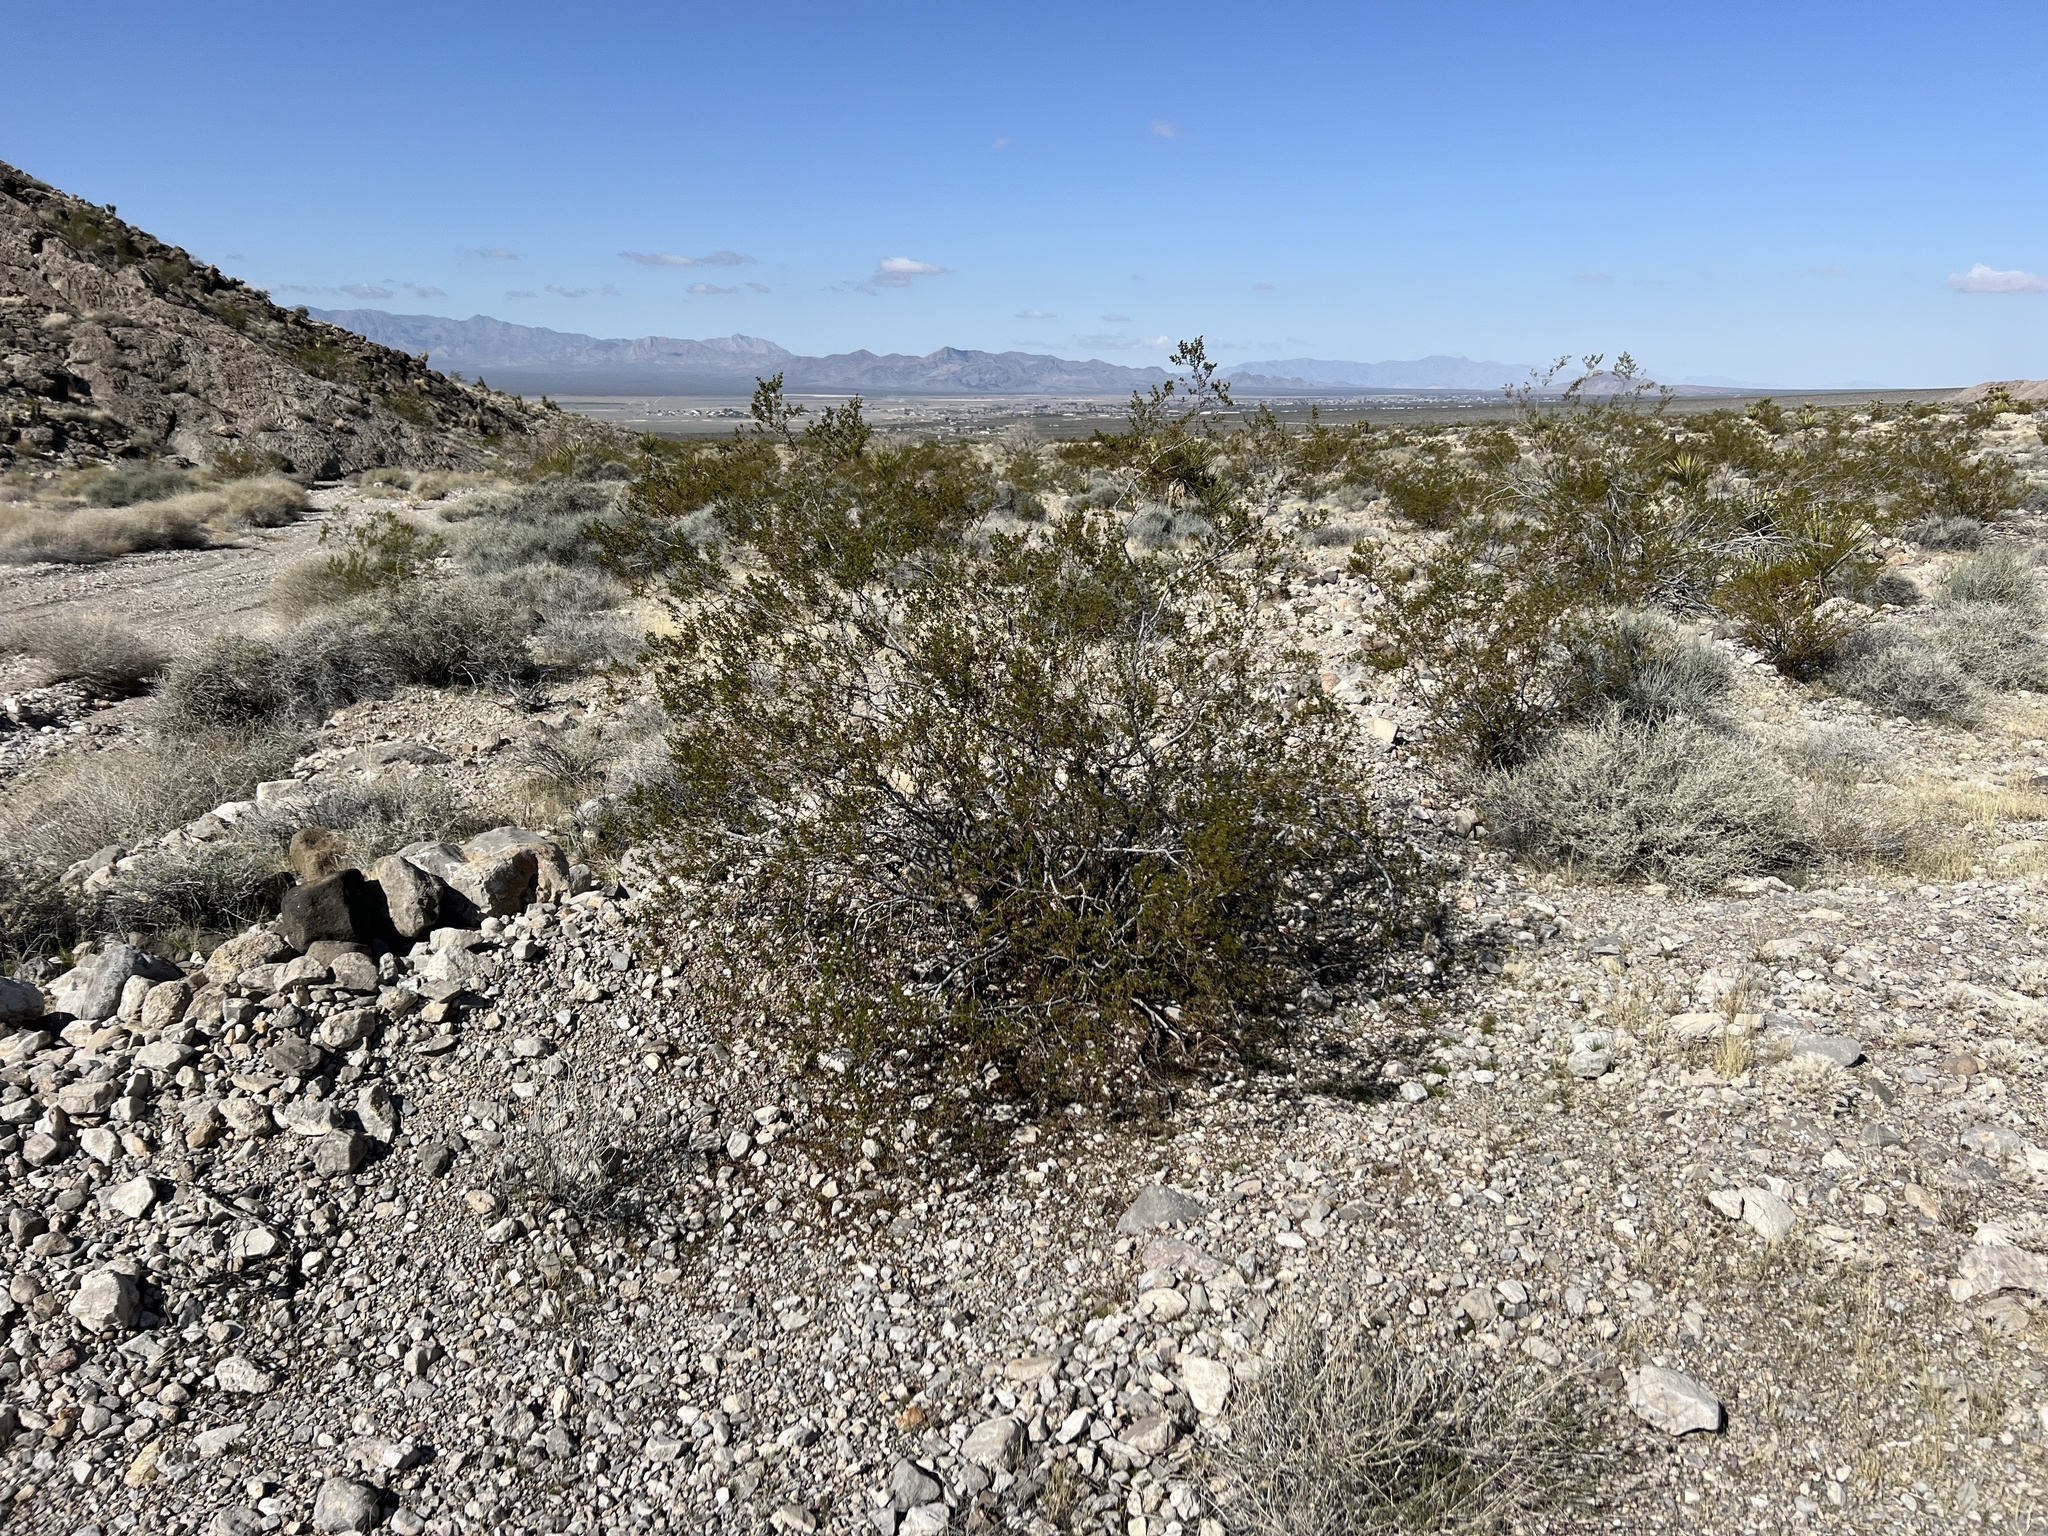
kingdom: Plantae
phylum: Tracheophyta
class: Magnoliopsida
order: Zygophyllales
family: Zygophyllaceae
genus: Larrea
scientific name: Larrea tridentata
